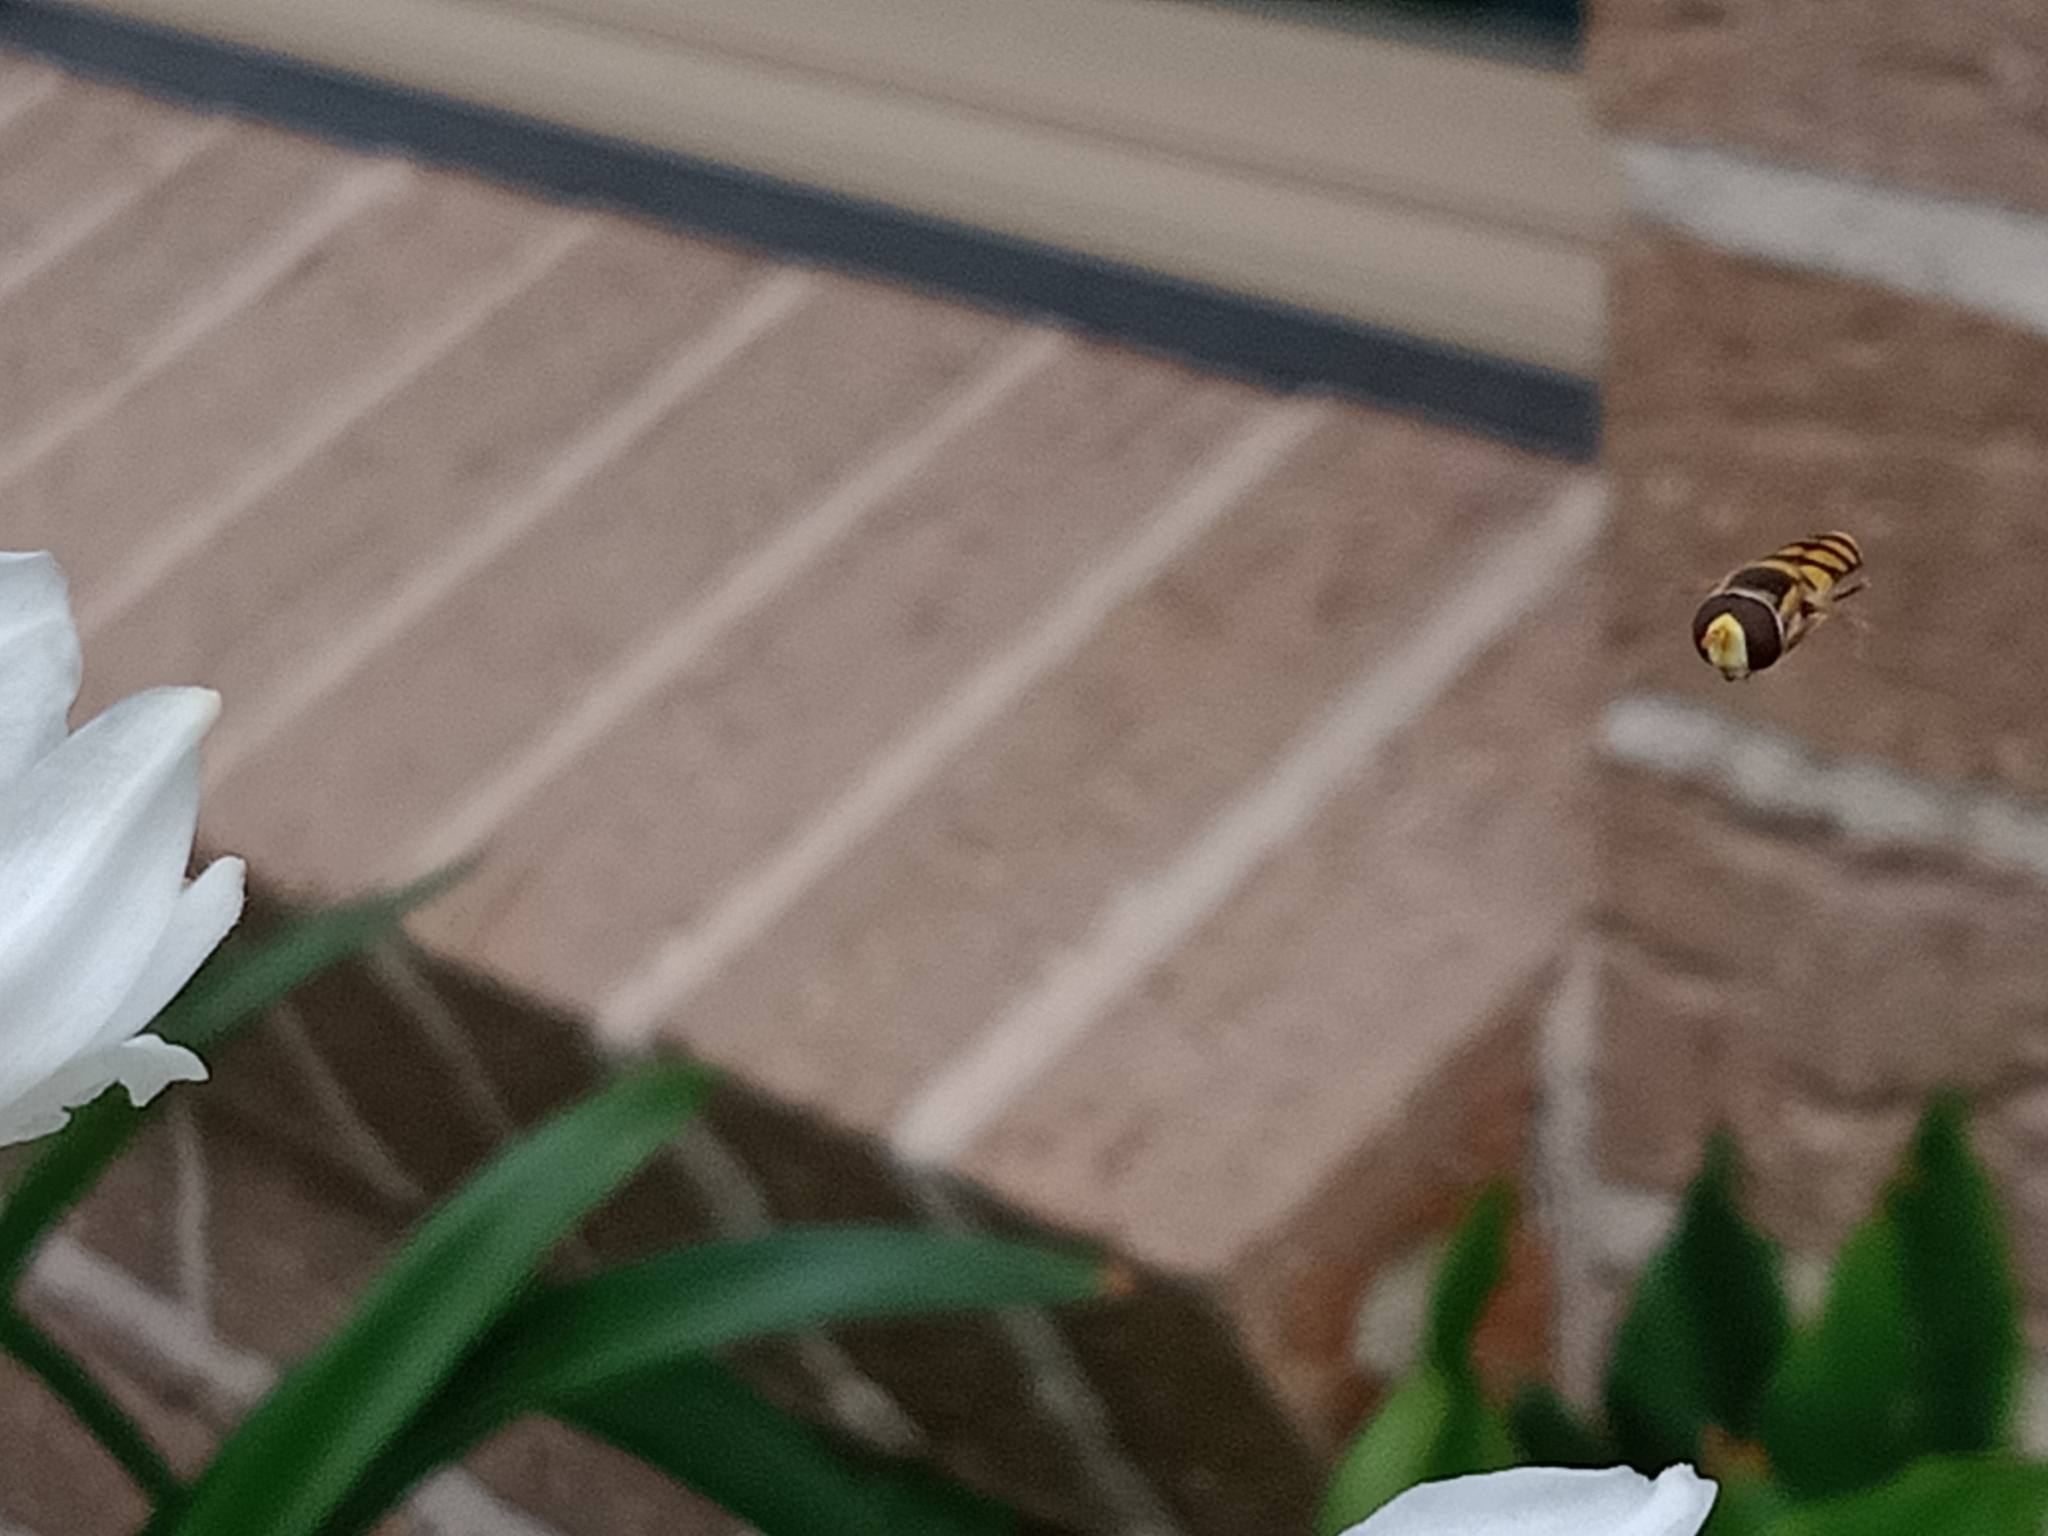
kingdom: Animalia
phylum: Arthropoda
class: Insecta
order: Diptera
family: Syrphidae
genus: Simosyrphus
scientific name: Simosyrphus grandicornis
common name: Hoverfly
